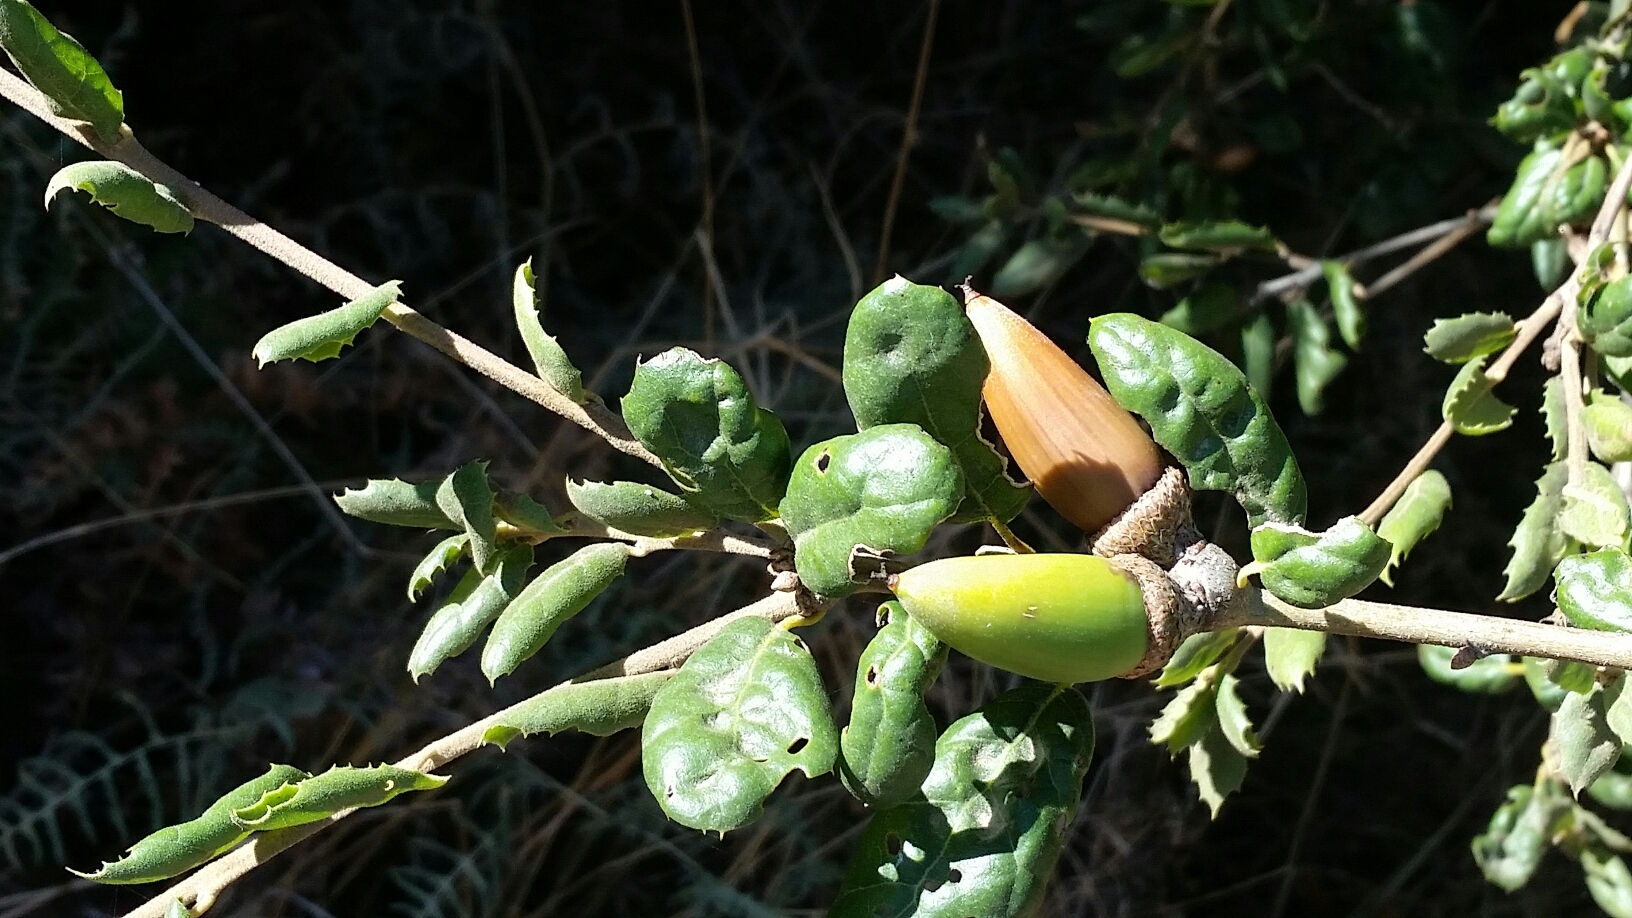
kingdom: Plantae
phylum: Tracheophyta
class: Magnoliopsida
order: Fagales
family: Fagaceae
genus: Quercus
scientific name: Quercus agrifolia
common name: California live oak
